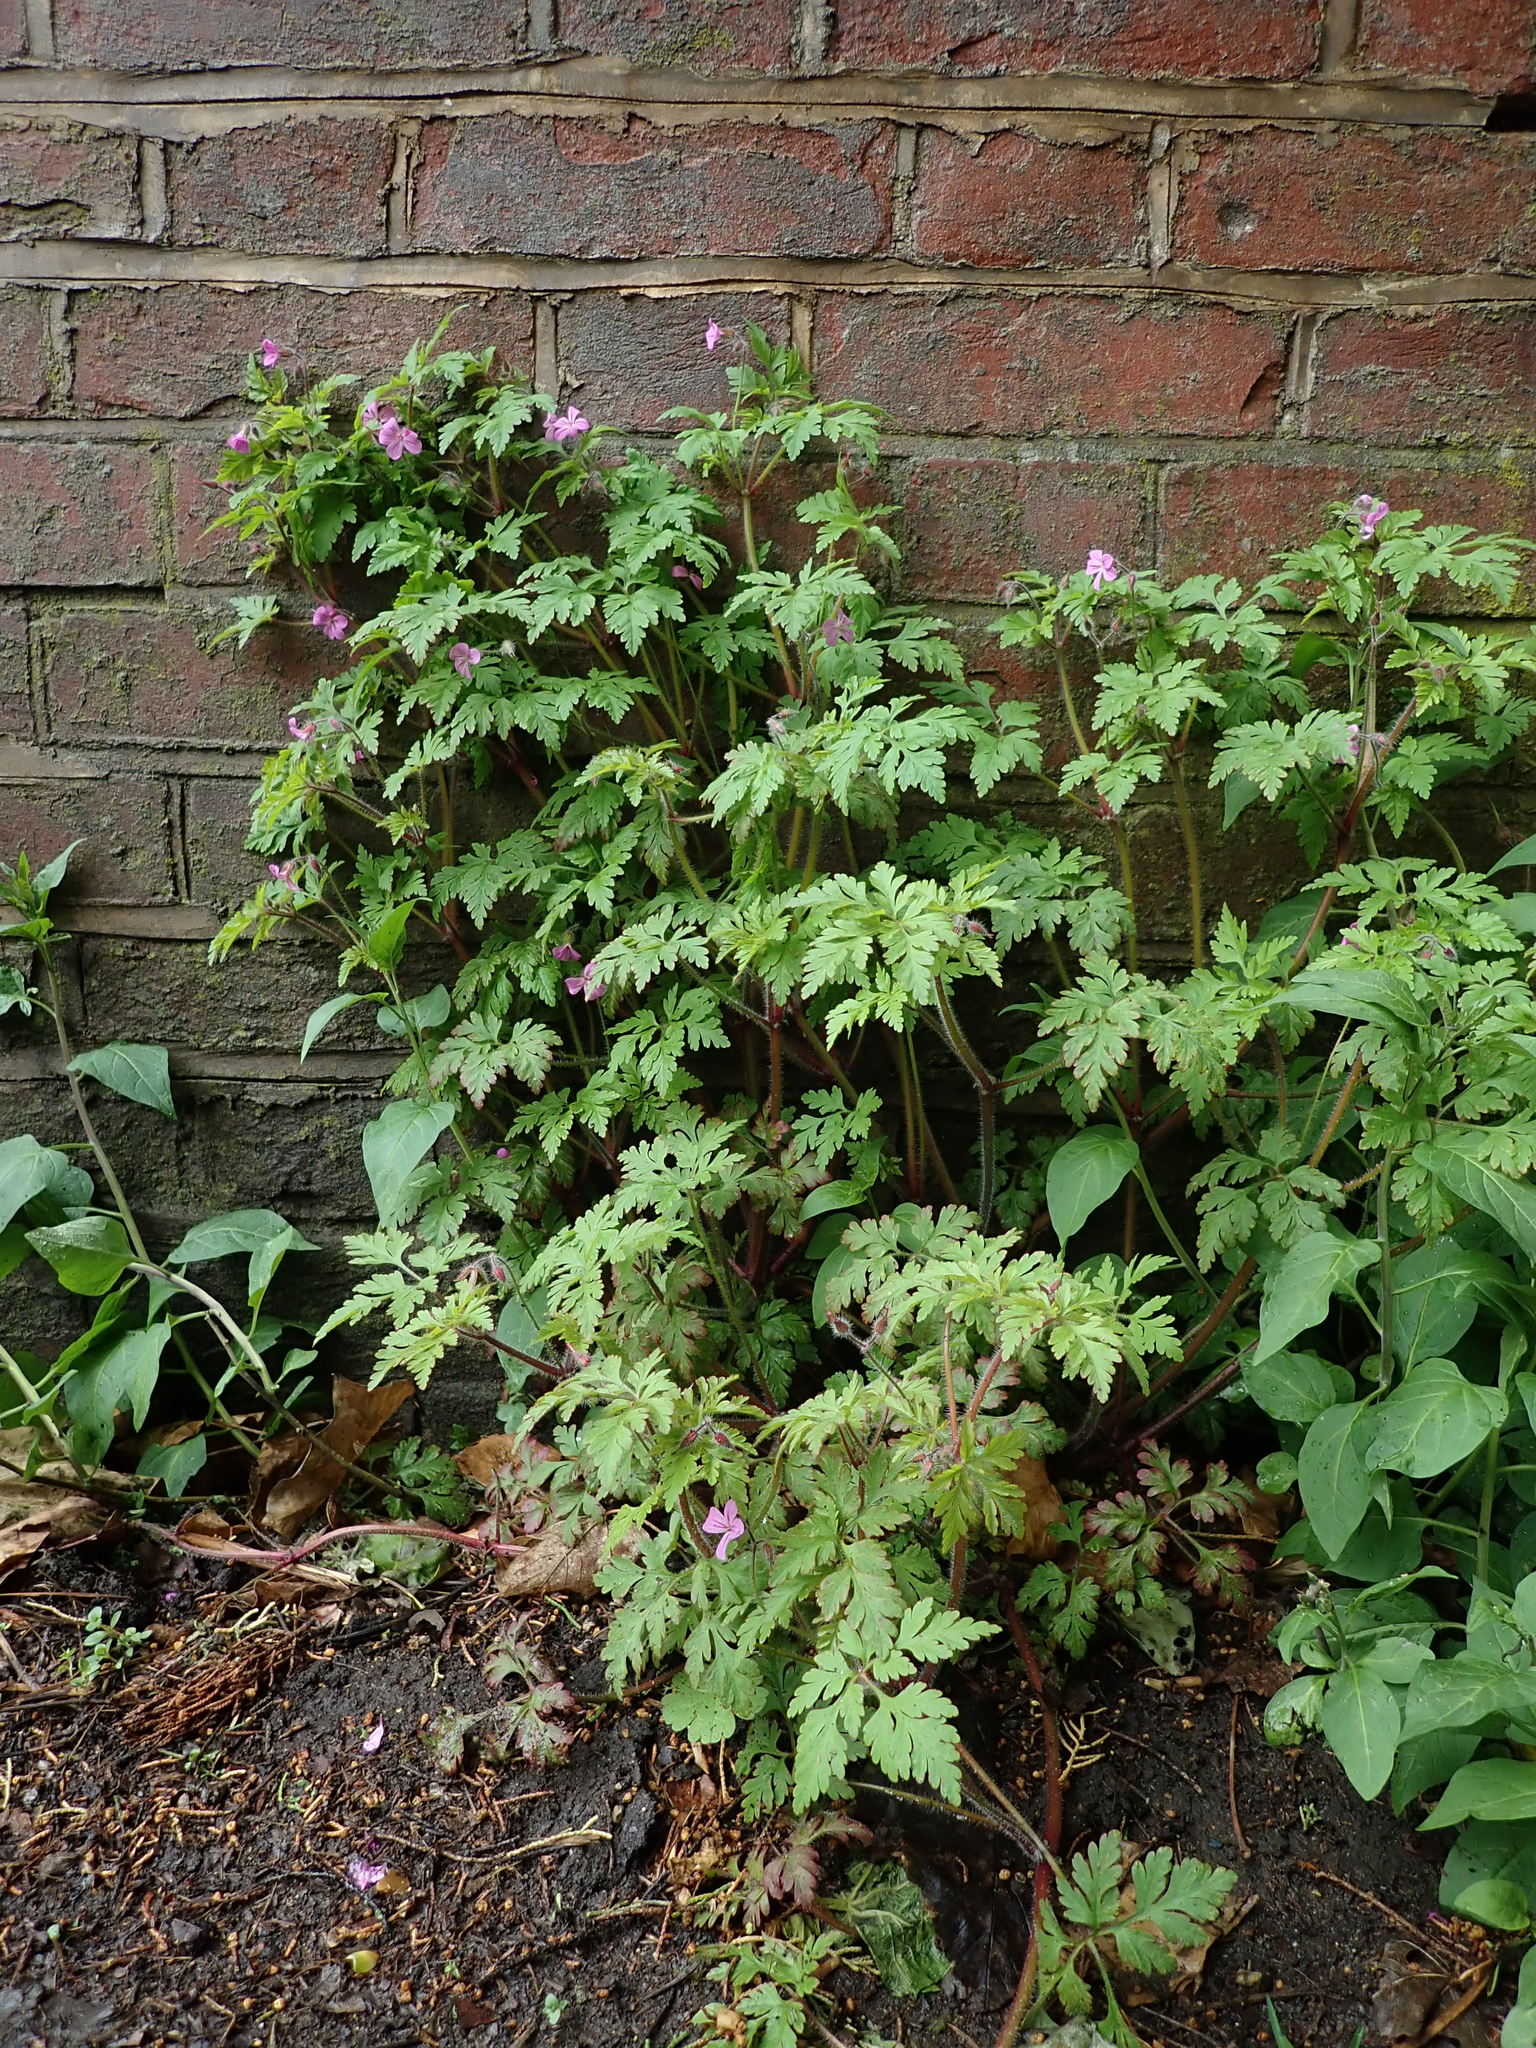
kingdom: Plantae
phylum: Tracheophyta
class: Magnoliopsida
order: Geraniales
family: Geraniaceae
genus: Geranium
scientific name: Geranium robertianum
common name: Herb-robert
